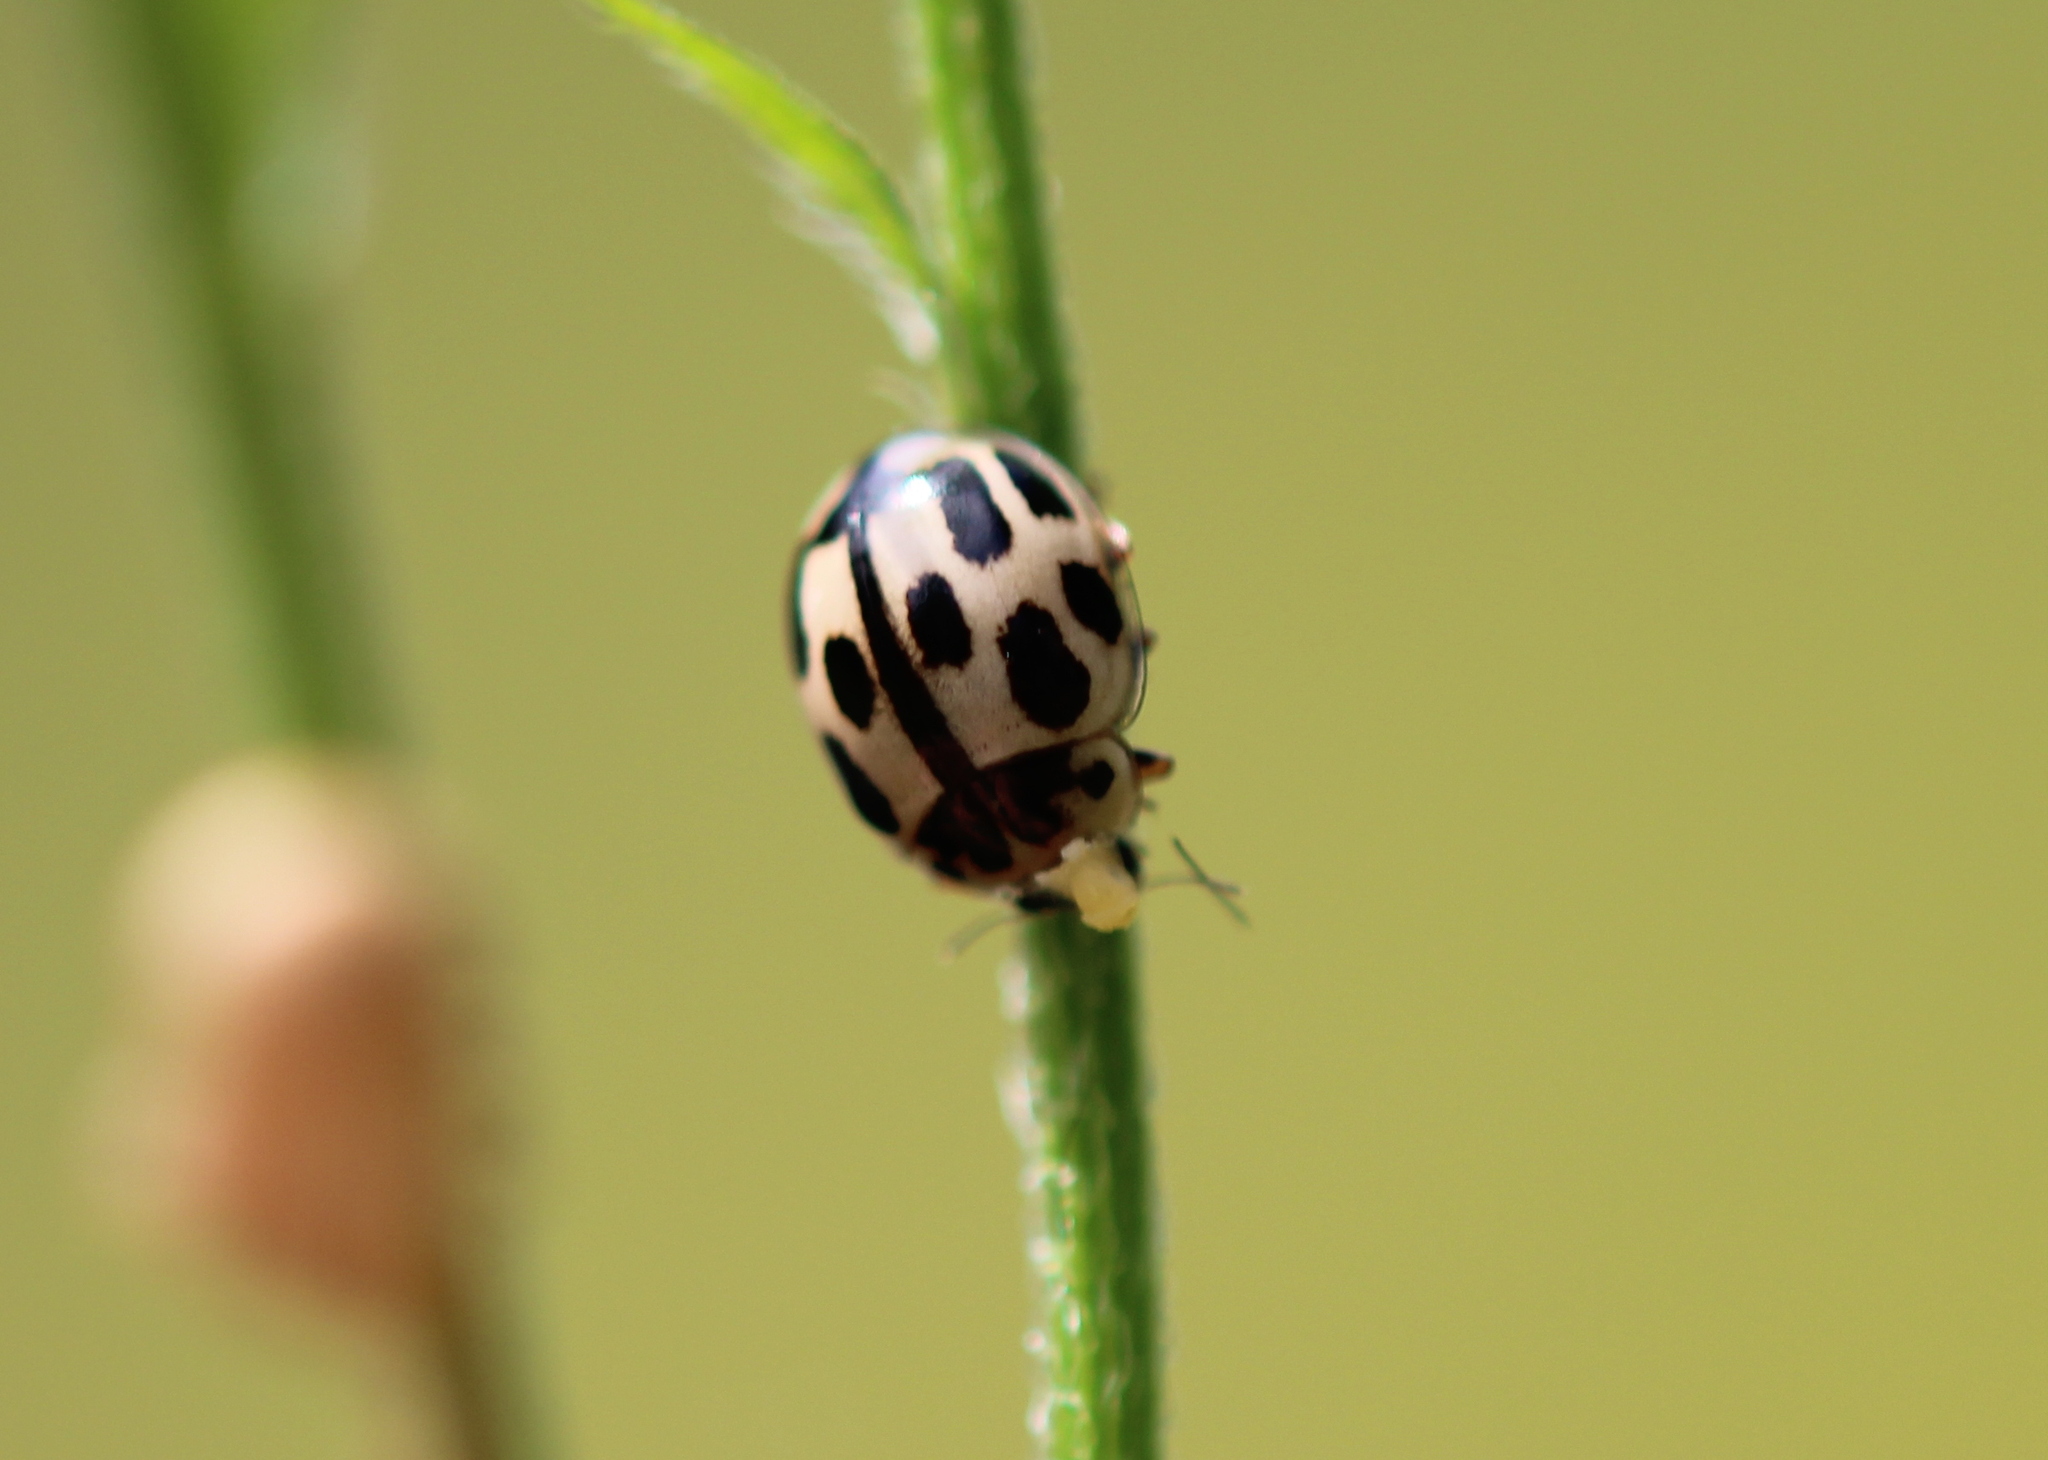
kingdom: Animalia
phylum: Arthropoda
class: Insecta
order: Coleoptera
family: Coccinellidae
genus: Propylaea
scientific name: Propylaea quatuordecimpunctata
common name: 14-spotted ladybird beetle
